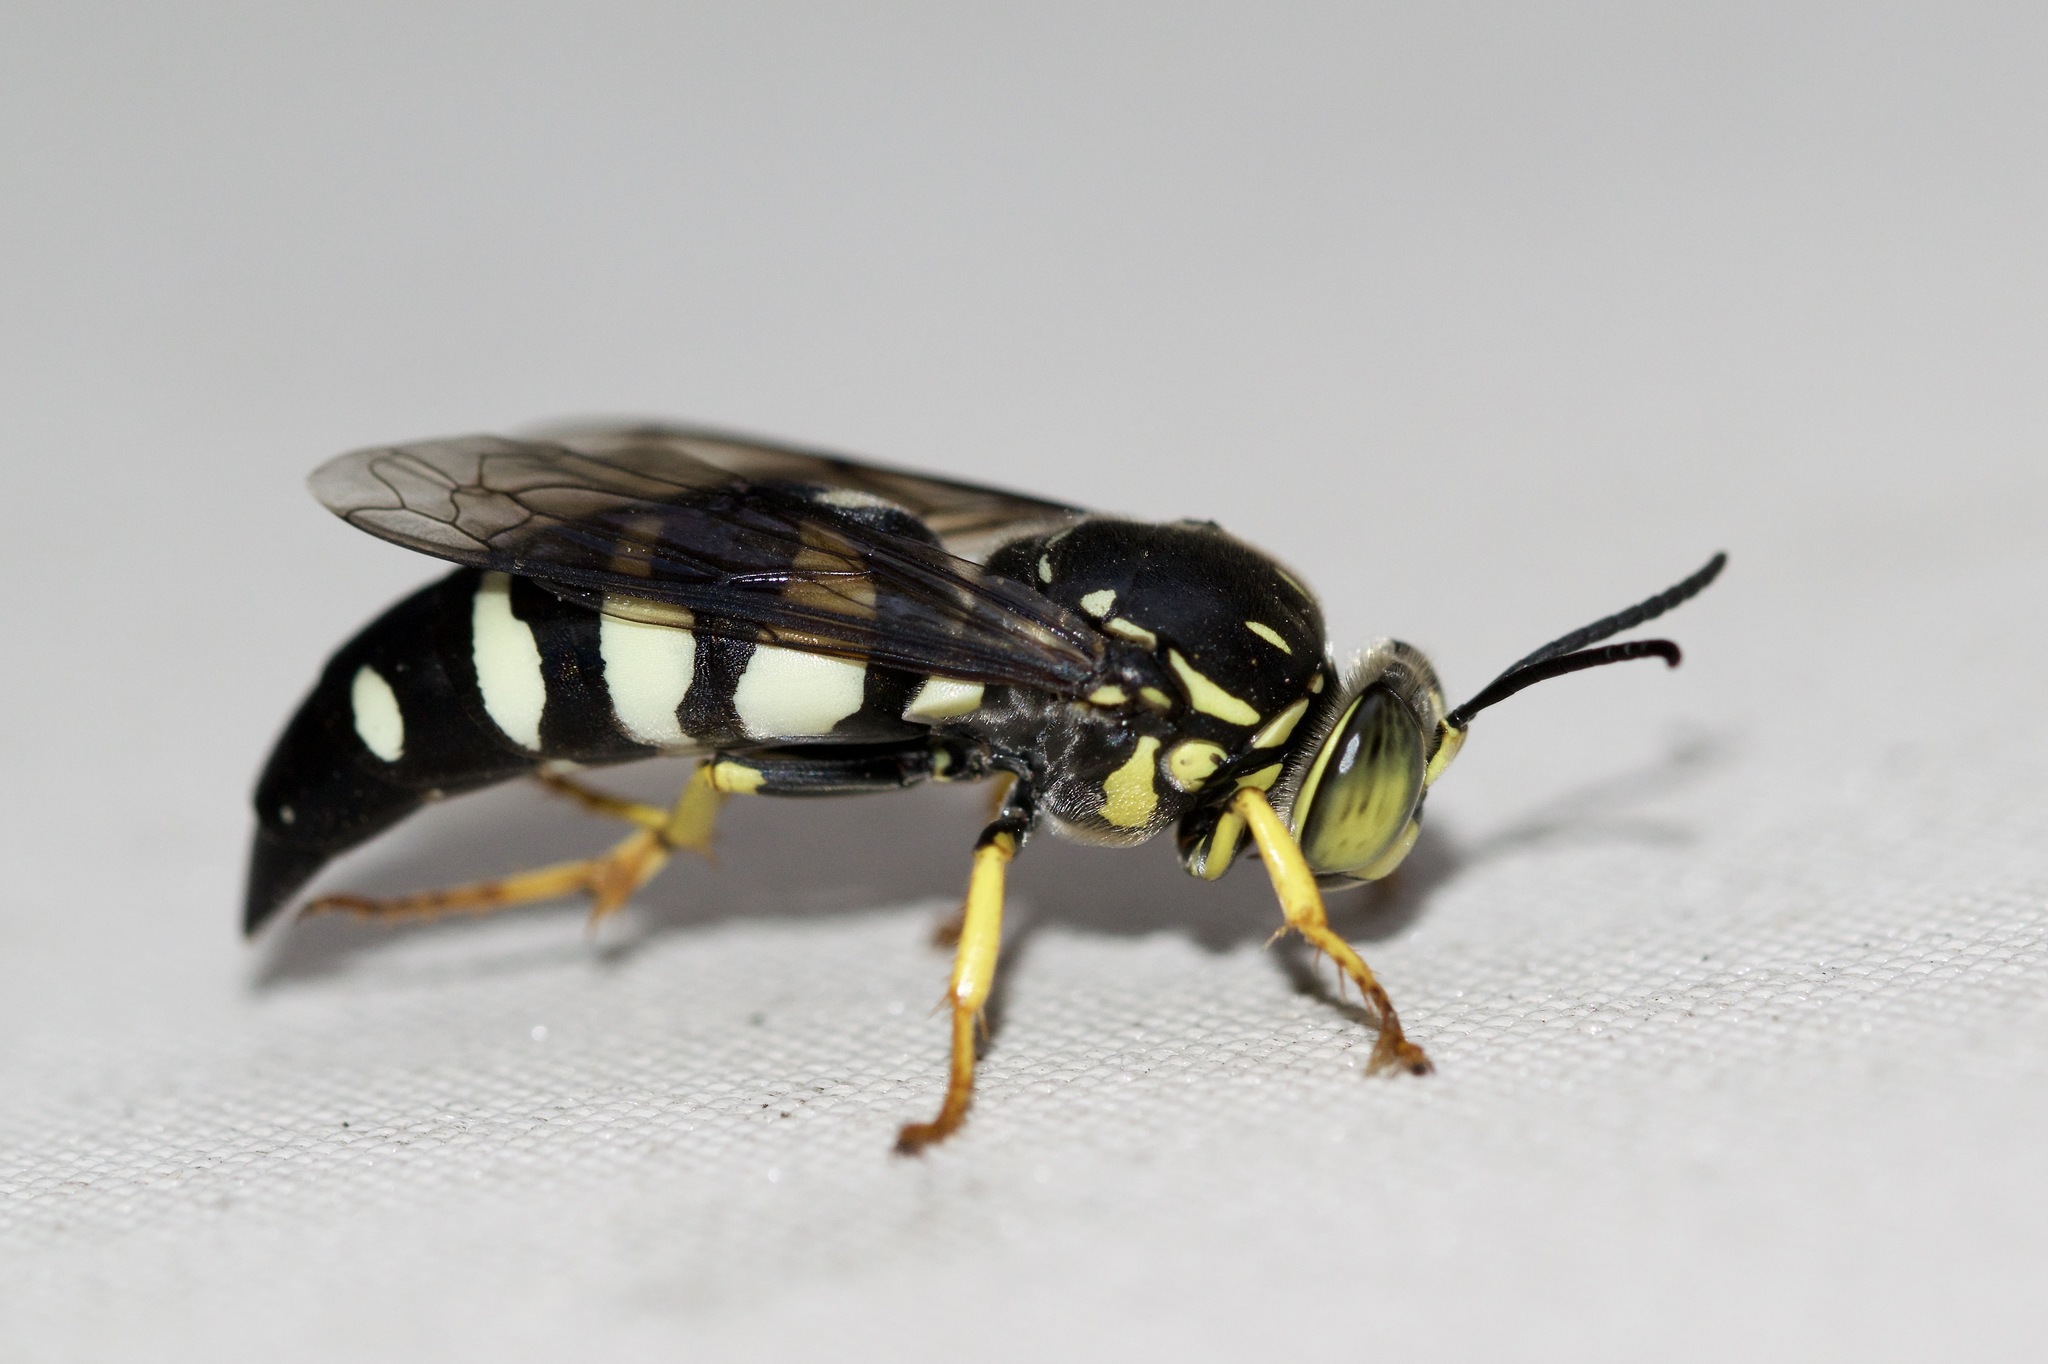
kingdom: Animalia
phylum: Arthropoda
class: Insecta
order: Hymenoptera
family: Crabronidae
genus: Bicyrtes
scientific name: Bicyrtes quadrifasciatus
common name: Four-banded stink bug hunter wasp
